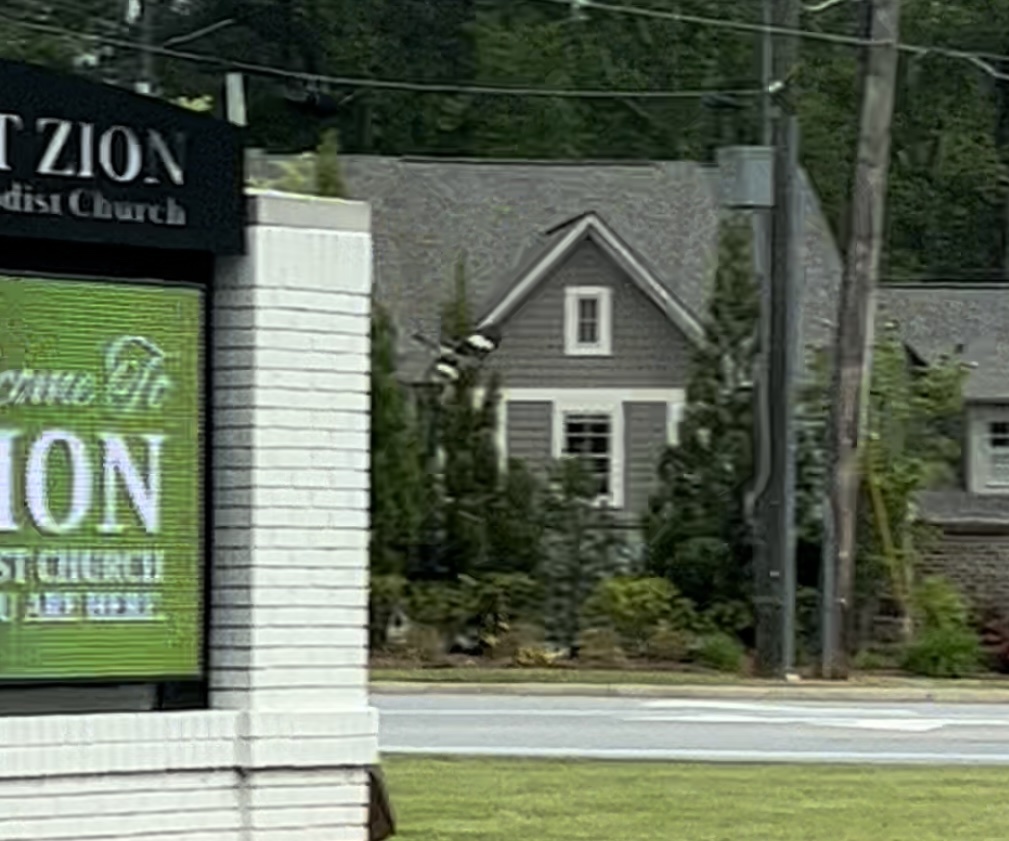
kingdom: Animalia
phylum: Chordata
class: Aves
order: Passeriformes
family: Mimidae
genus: Mimus
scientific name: Mimus polyglottos
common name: Northern mockingbird
